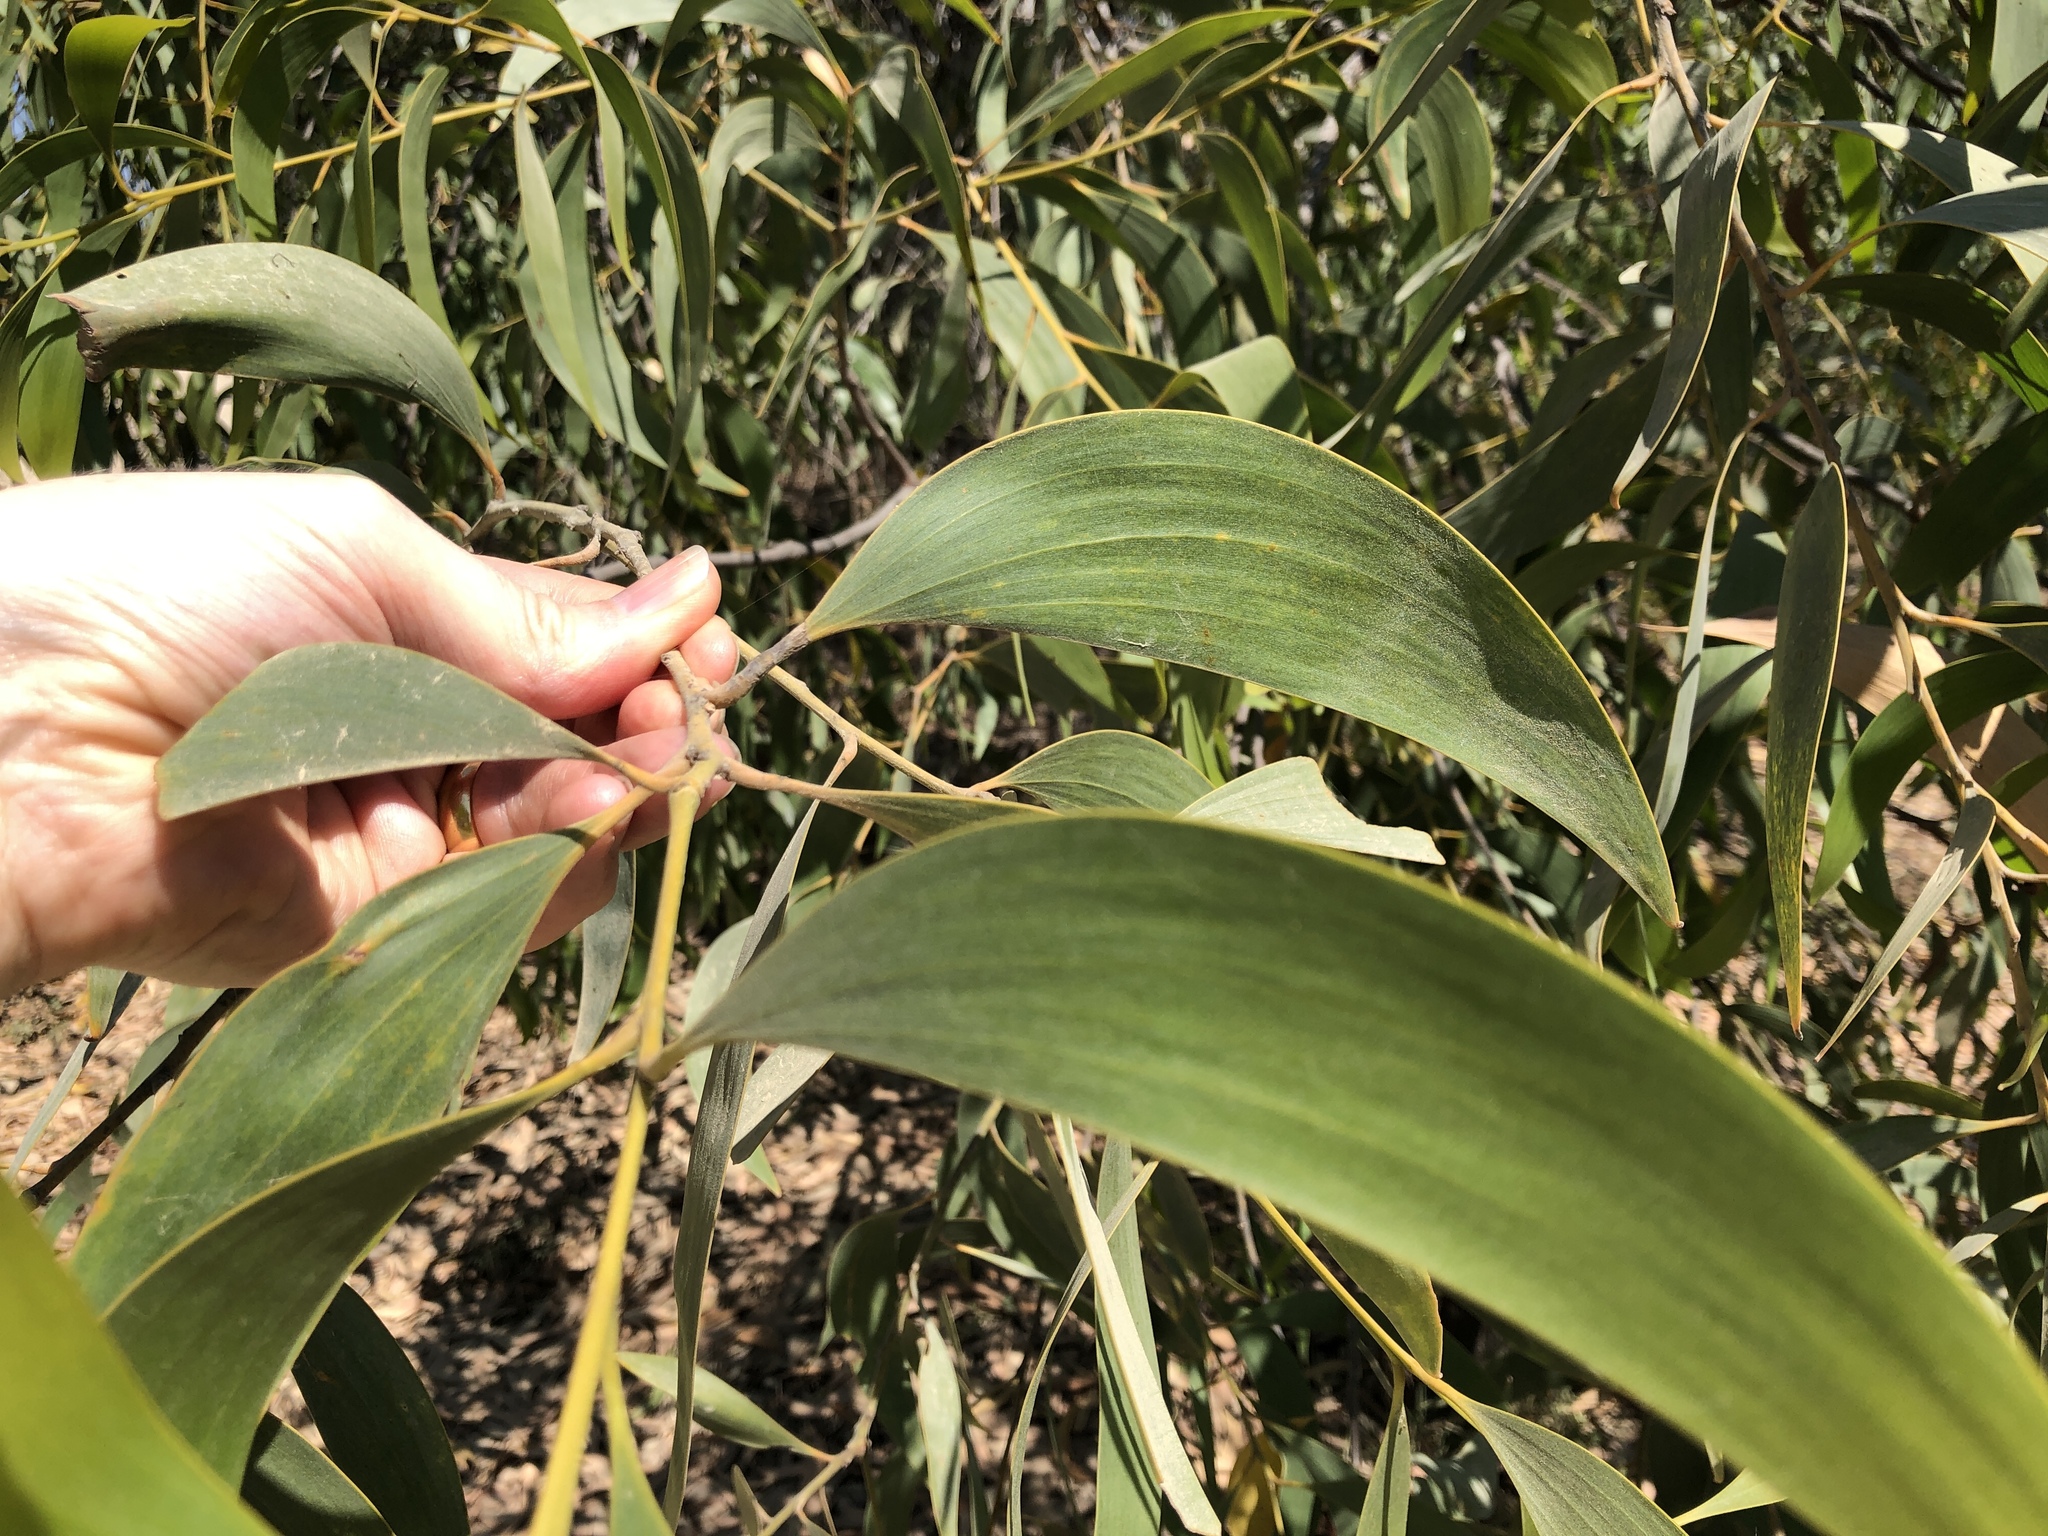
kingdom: Plantae
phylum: Tracheophyta
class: Magnoliopsida
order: Fabales
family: Fabaceae
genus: Acacia
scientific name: Acacia crassicarpa
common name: Northern wattle
